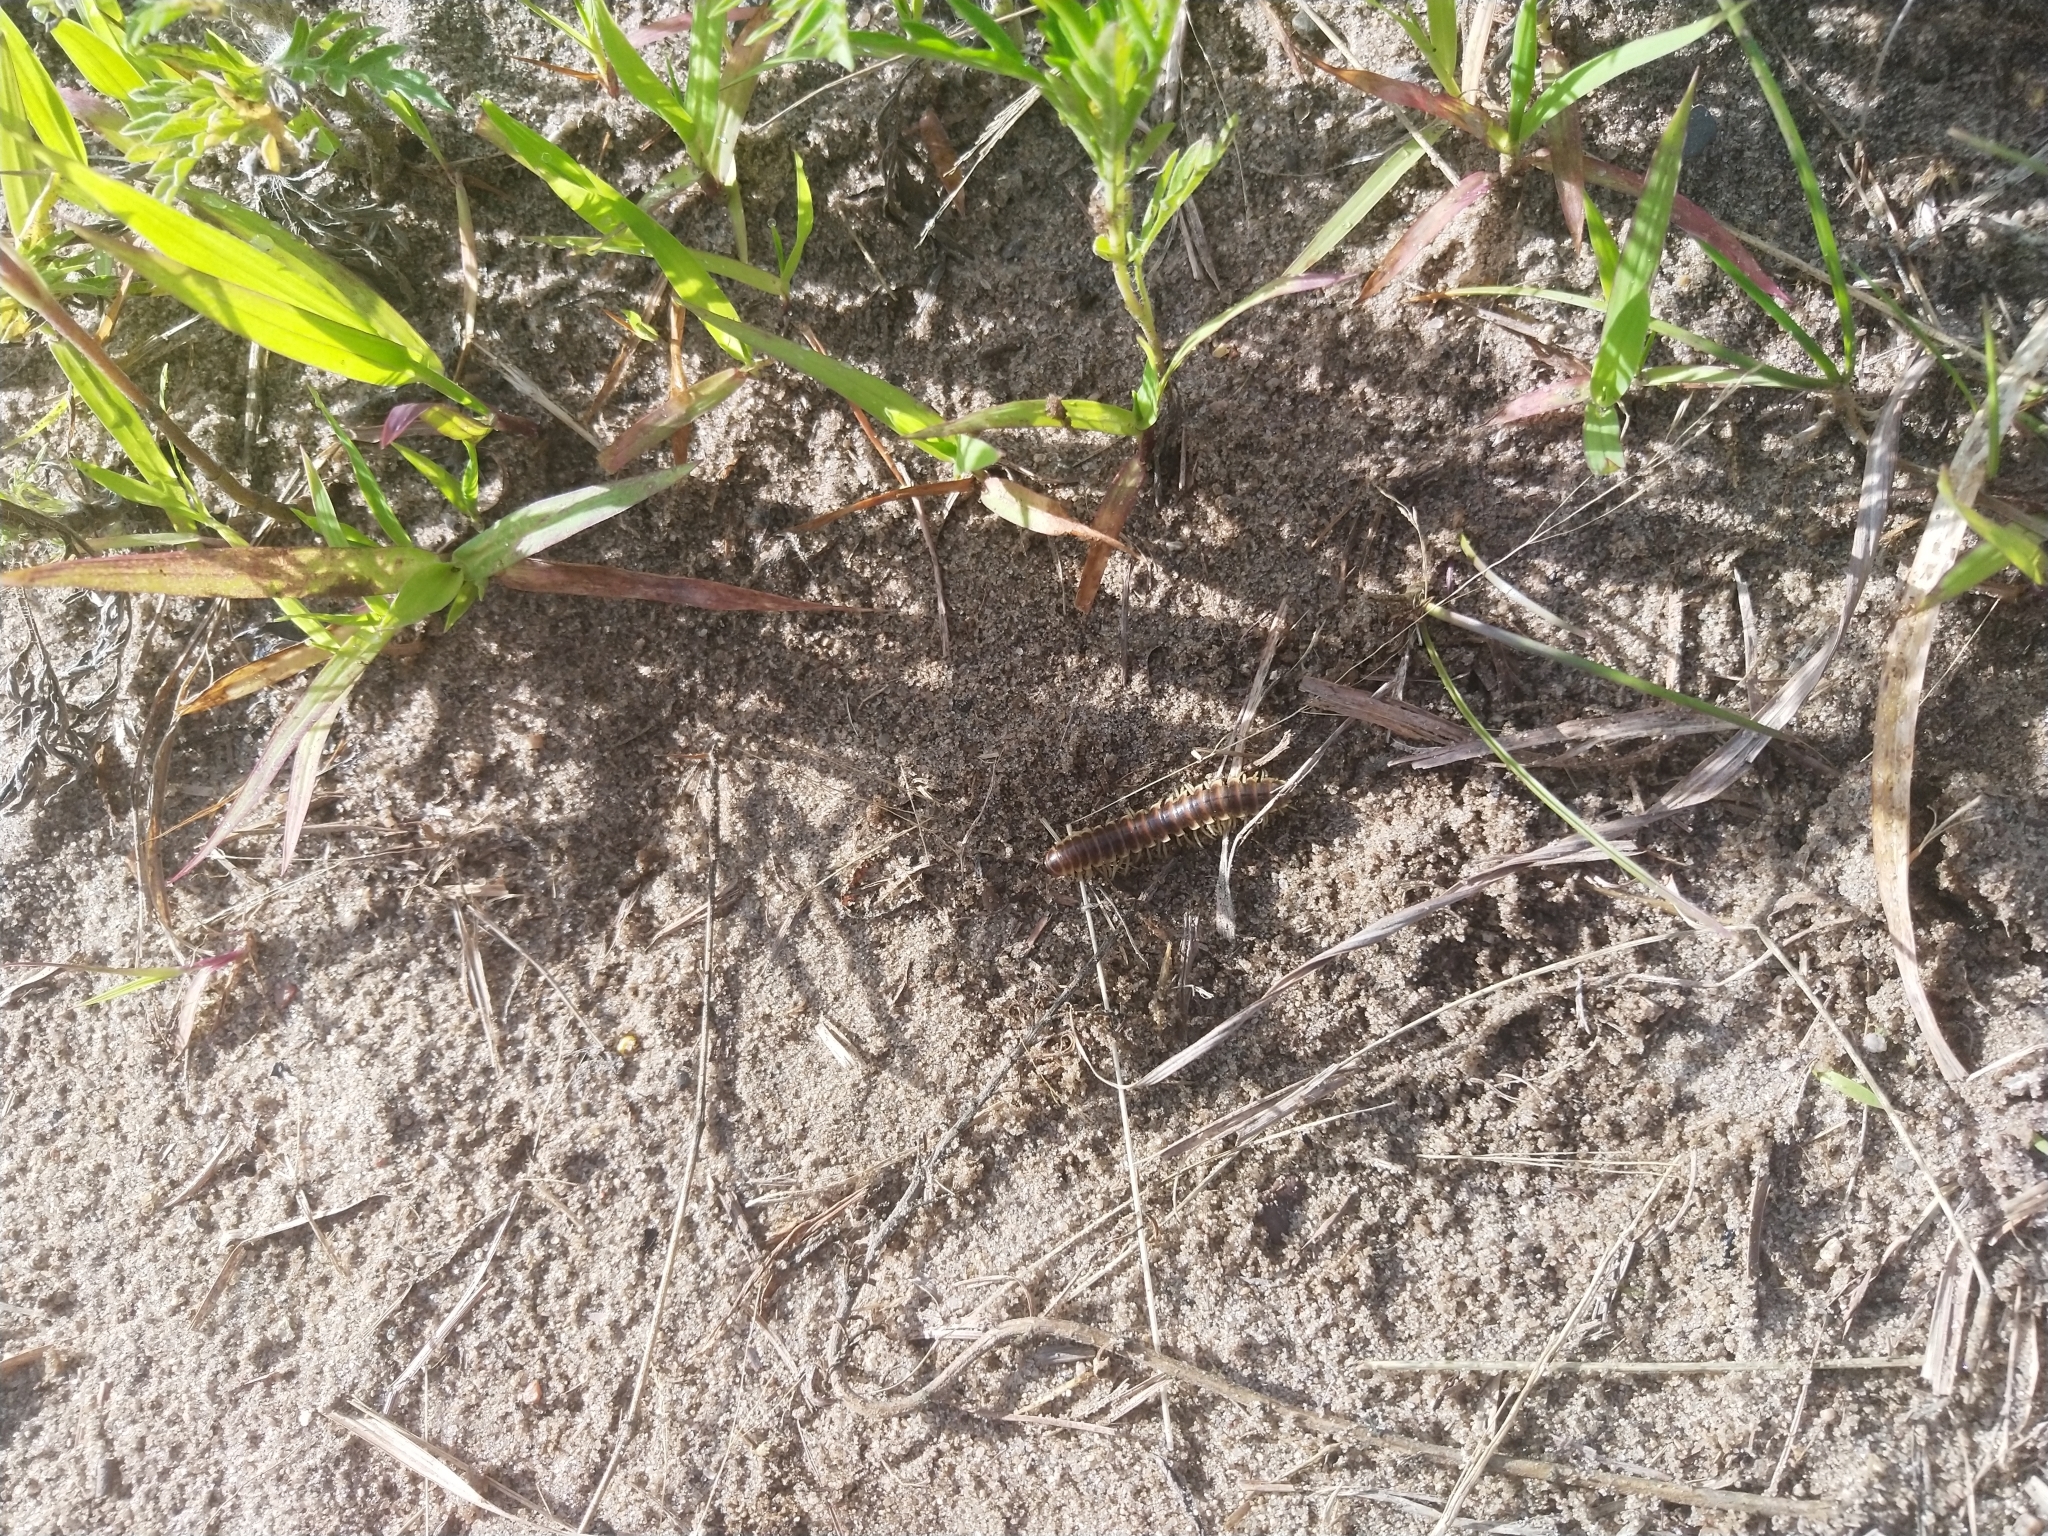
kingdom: Animalia
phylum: Arthropoda
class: Diplopoda
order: Polydesmida
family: Xystodesmidae
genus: Pleuroloma
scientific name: Pleuroloma flavipes
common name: Yellow-legged pleuroloma
